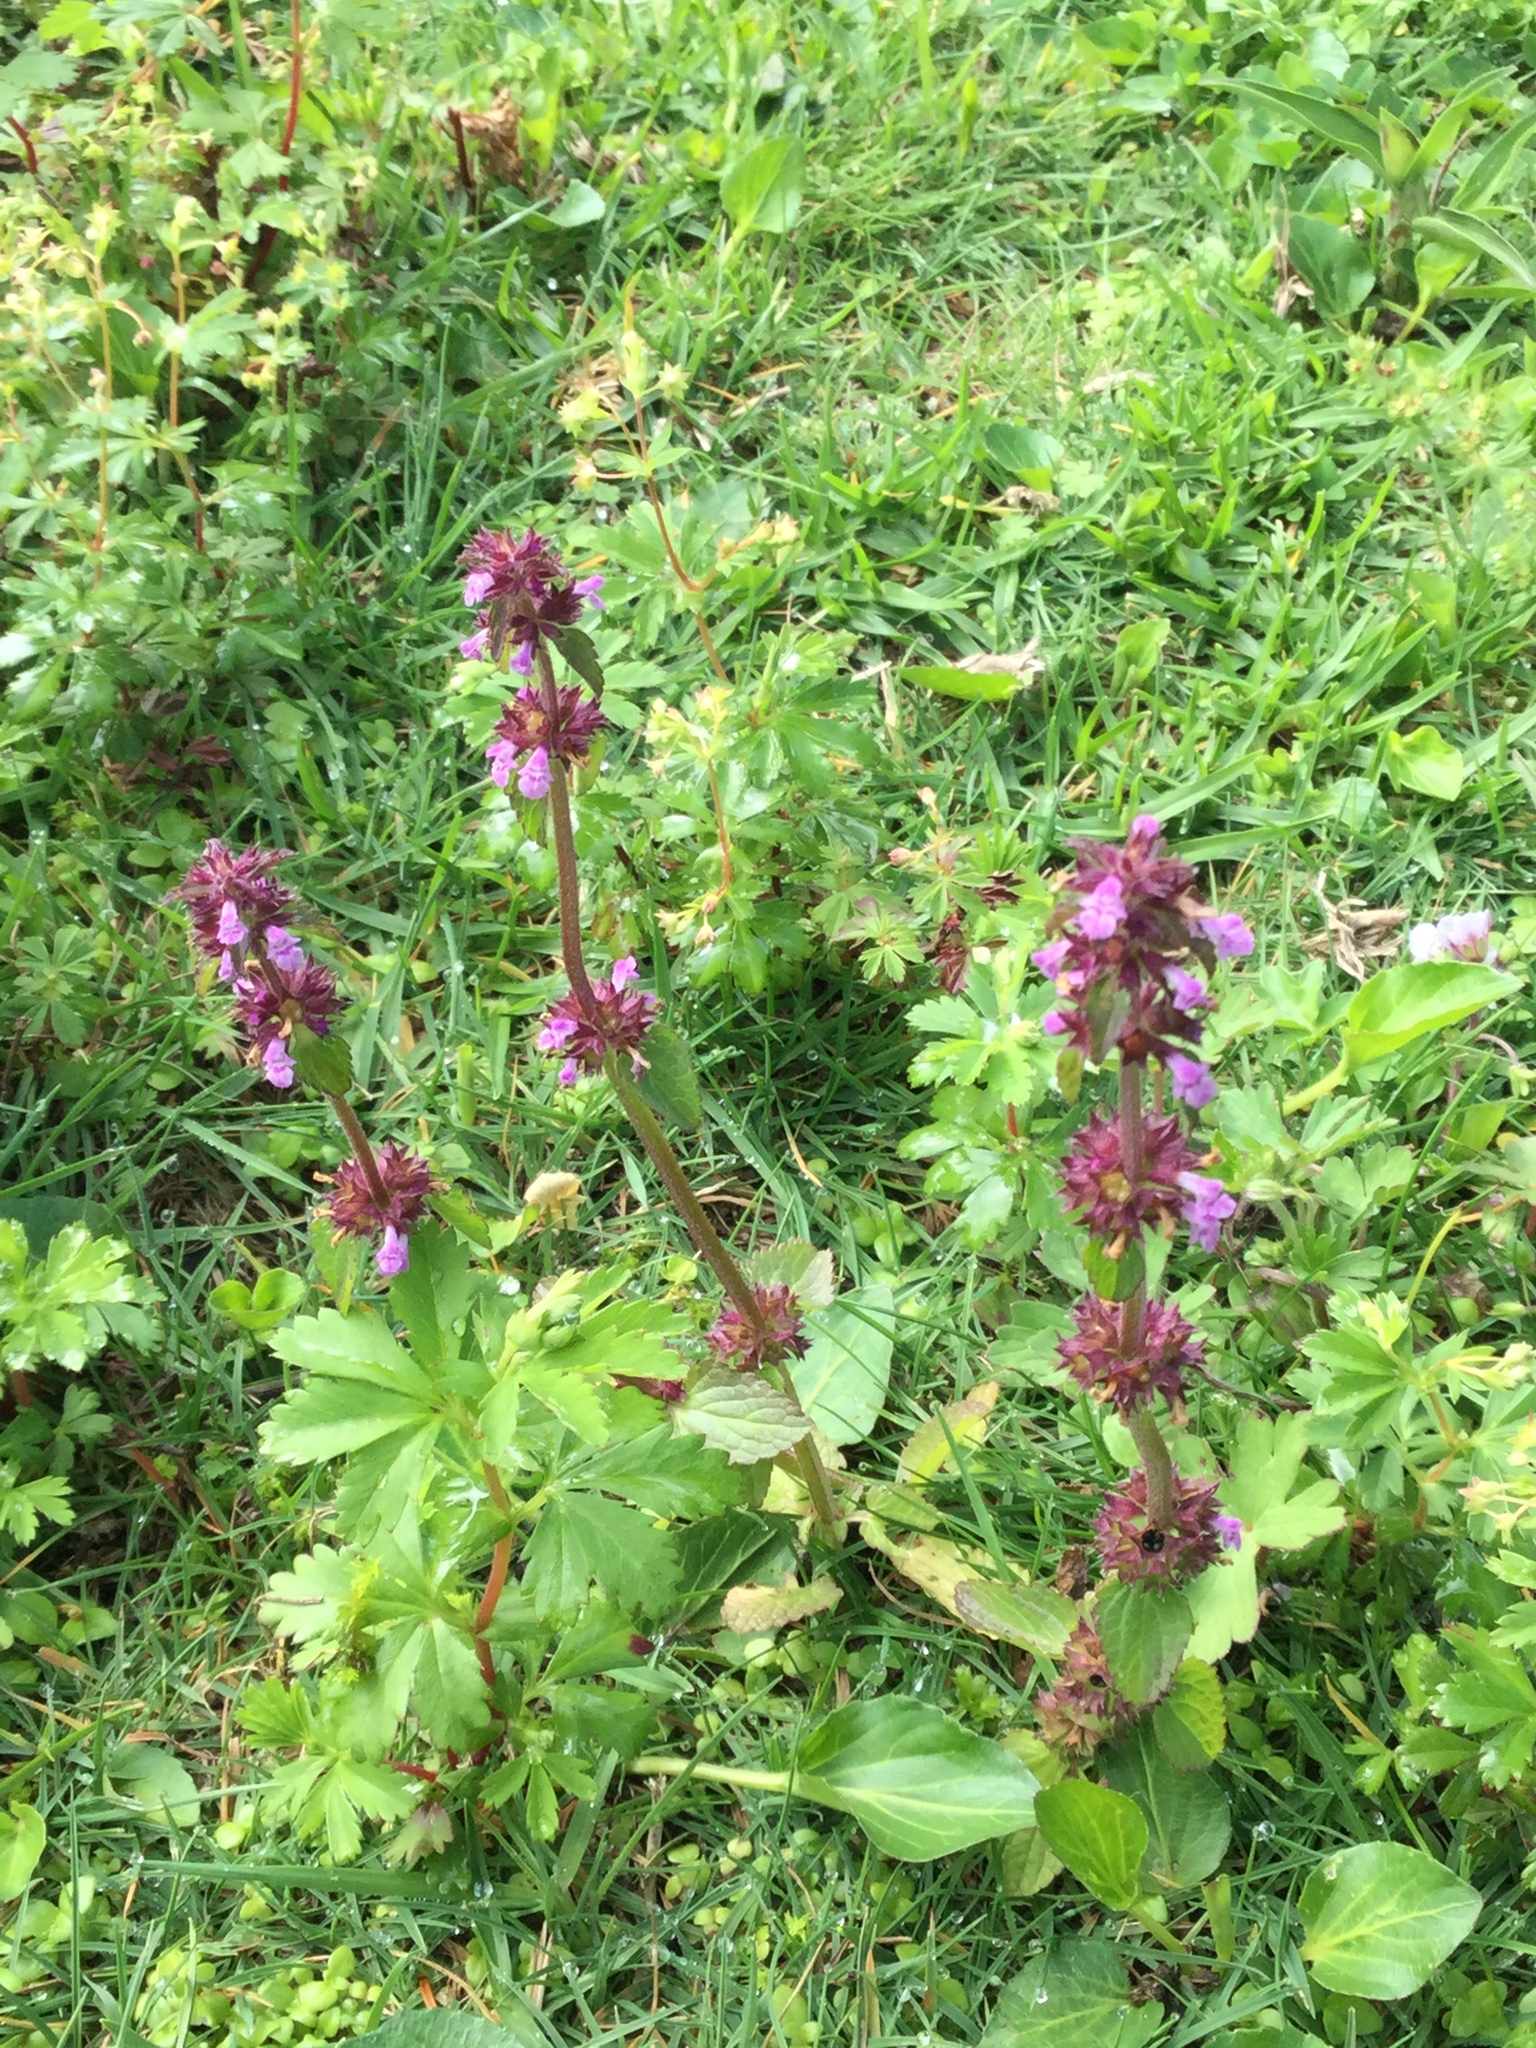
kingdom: Plantae
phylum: Tracheophyta
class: Magnoliopsida
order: Lamiales
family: Lamiaceae
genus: Stachys
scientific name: Stachys agraria
